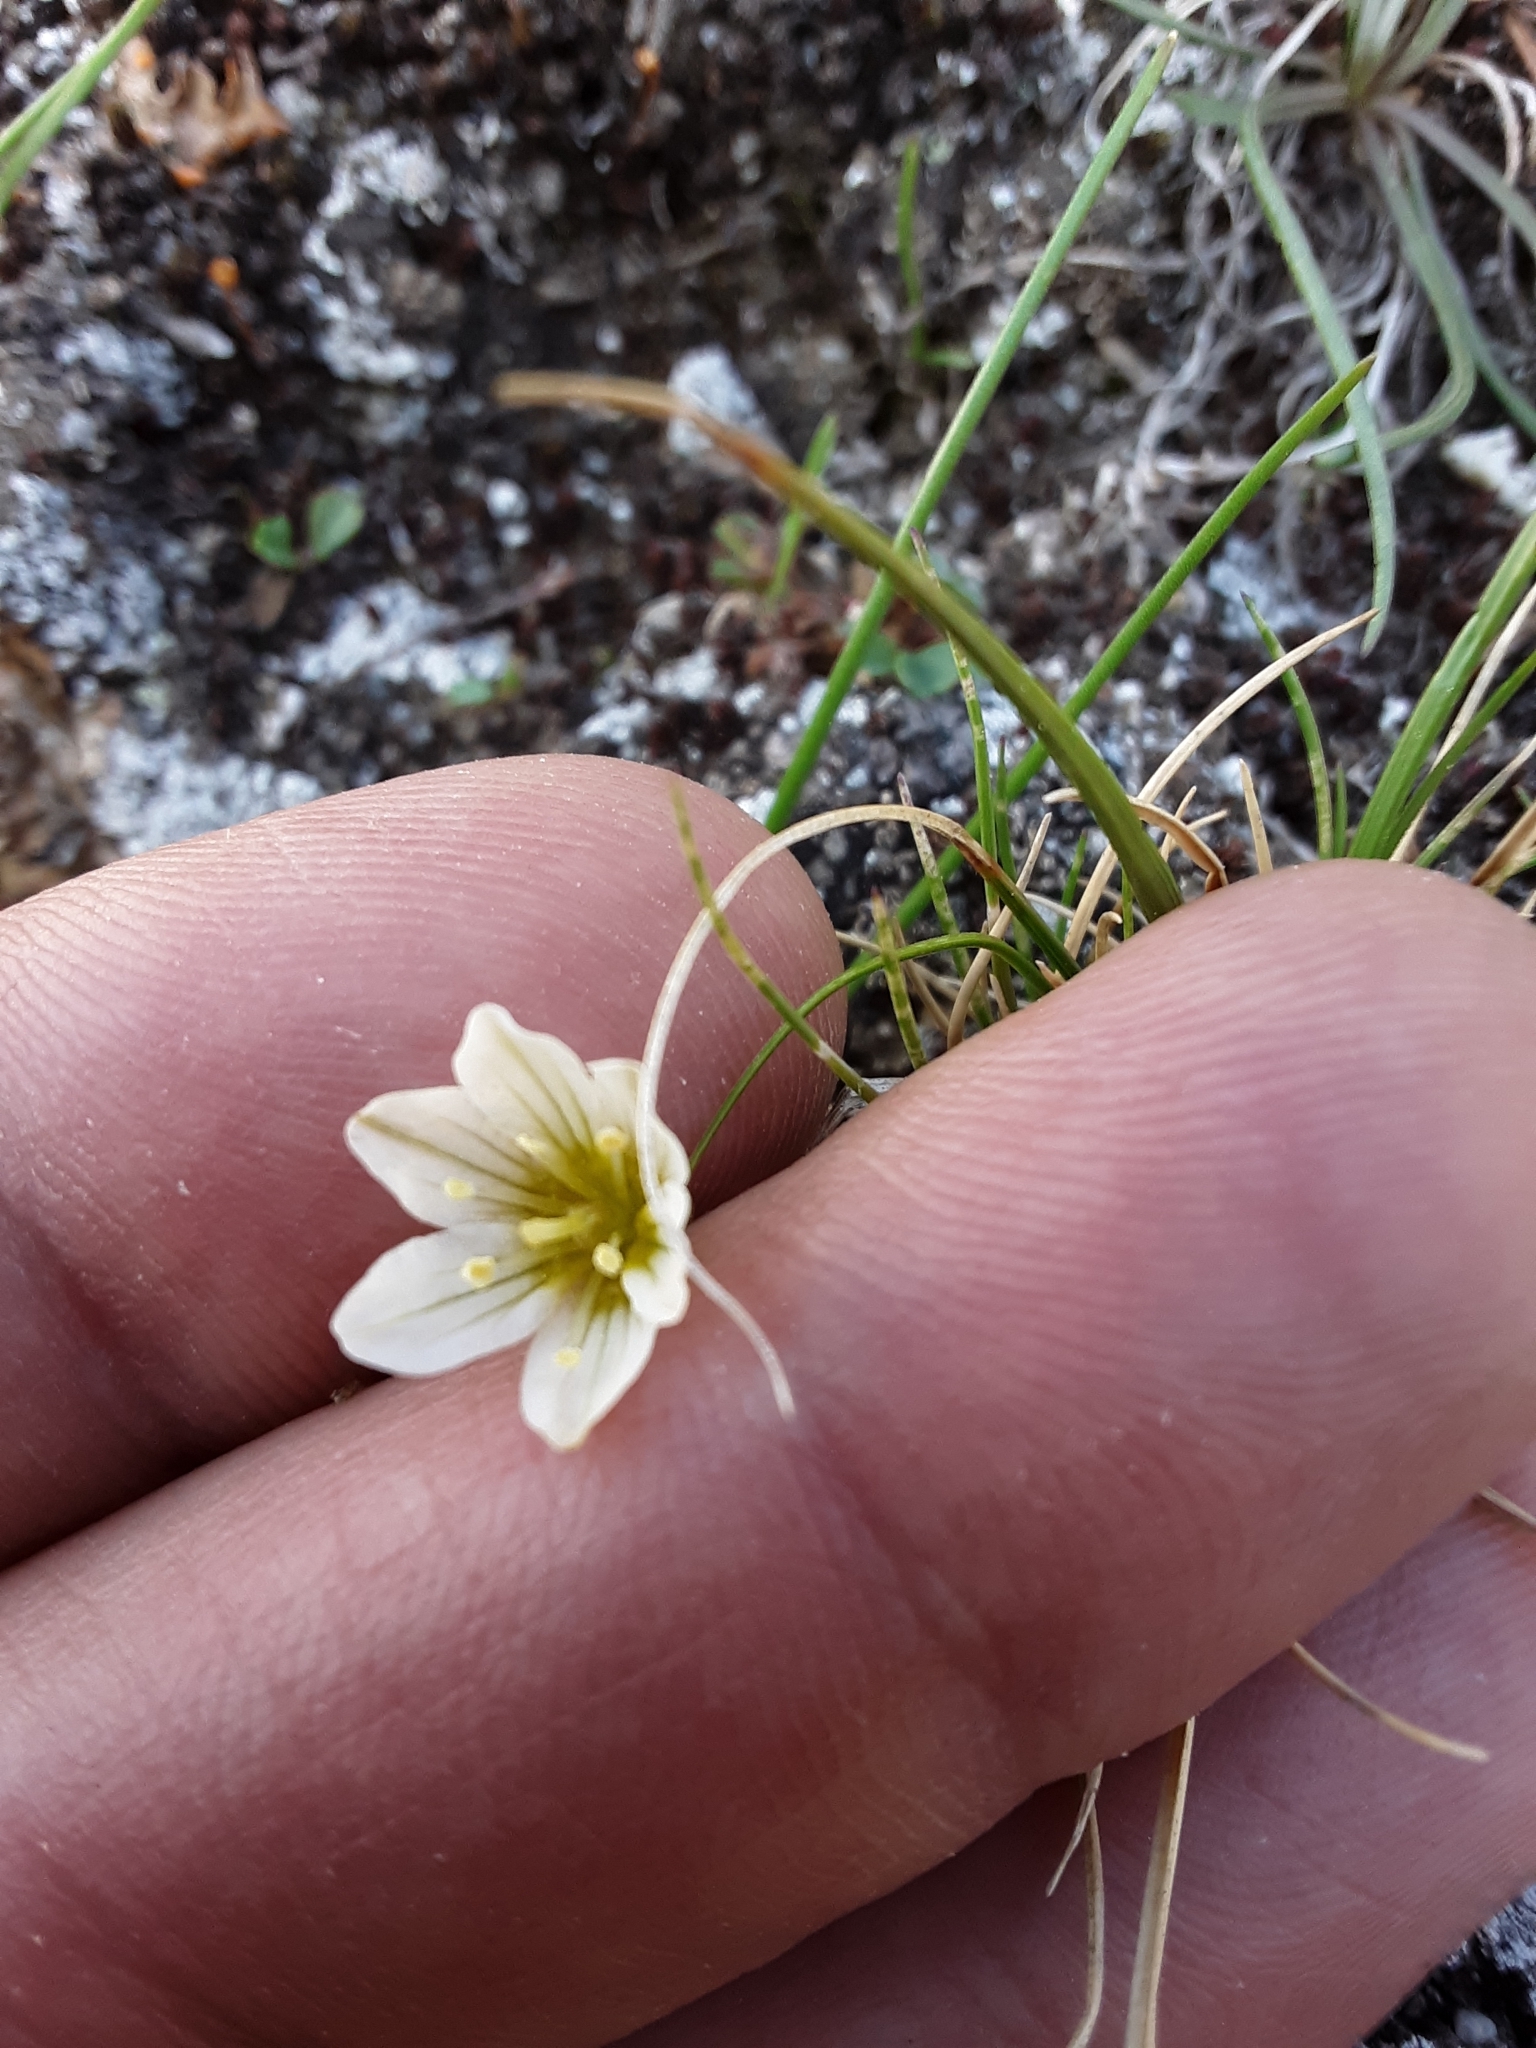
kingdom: Plantae
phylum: Tracheophyta
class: Liliopsida
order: Liliales
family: Liliaceae
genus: Gagea
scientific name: Gagea serotina
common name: Snowdon lily
